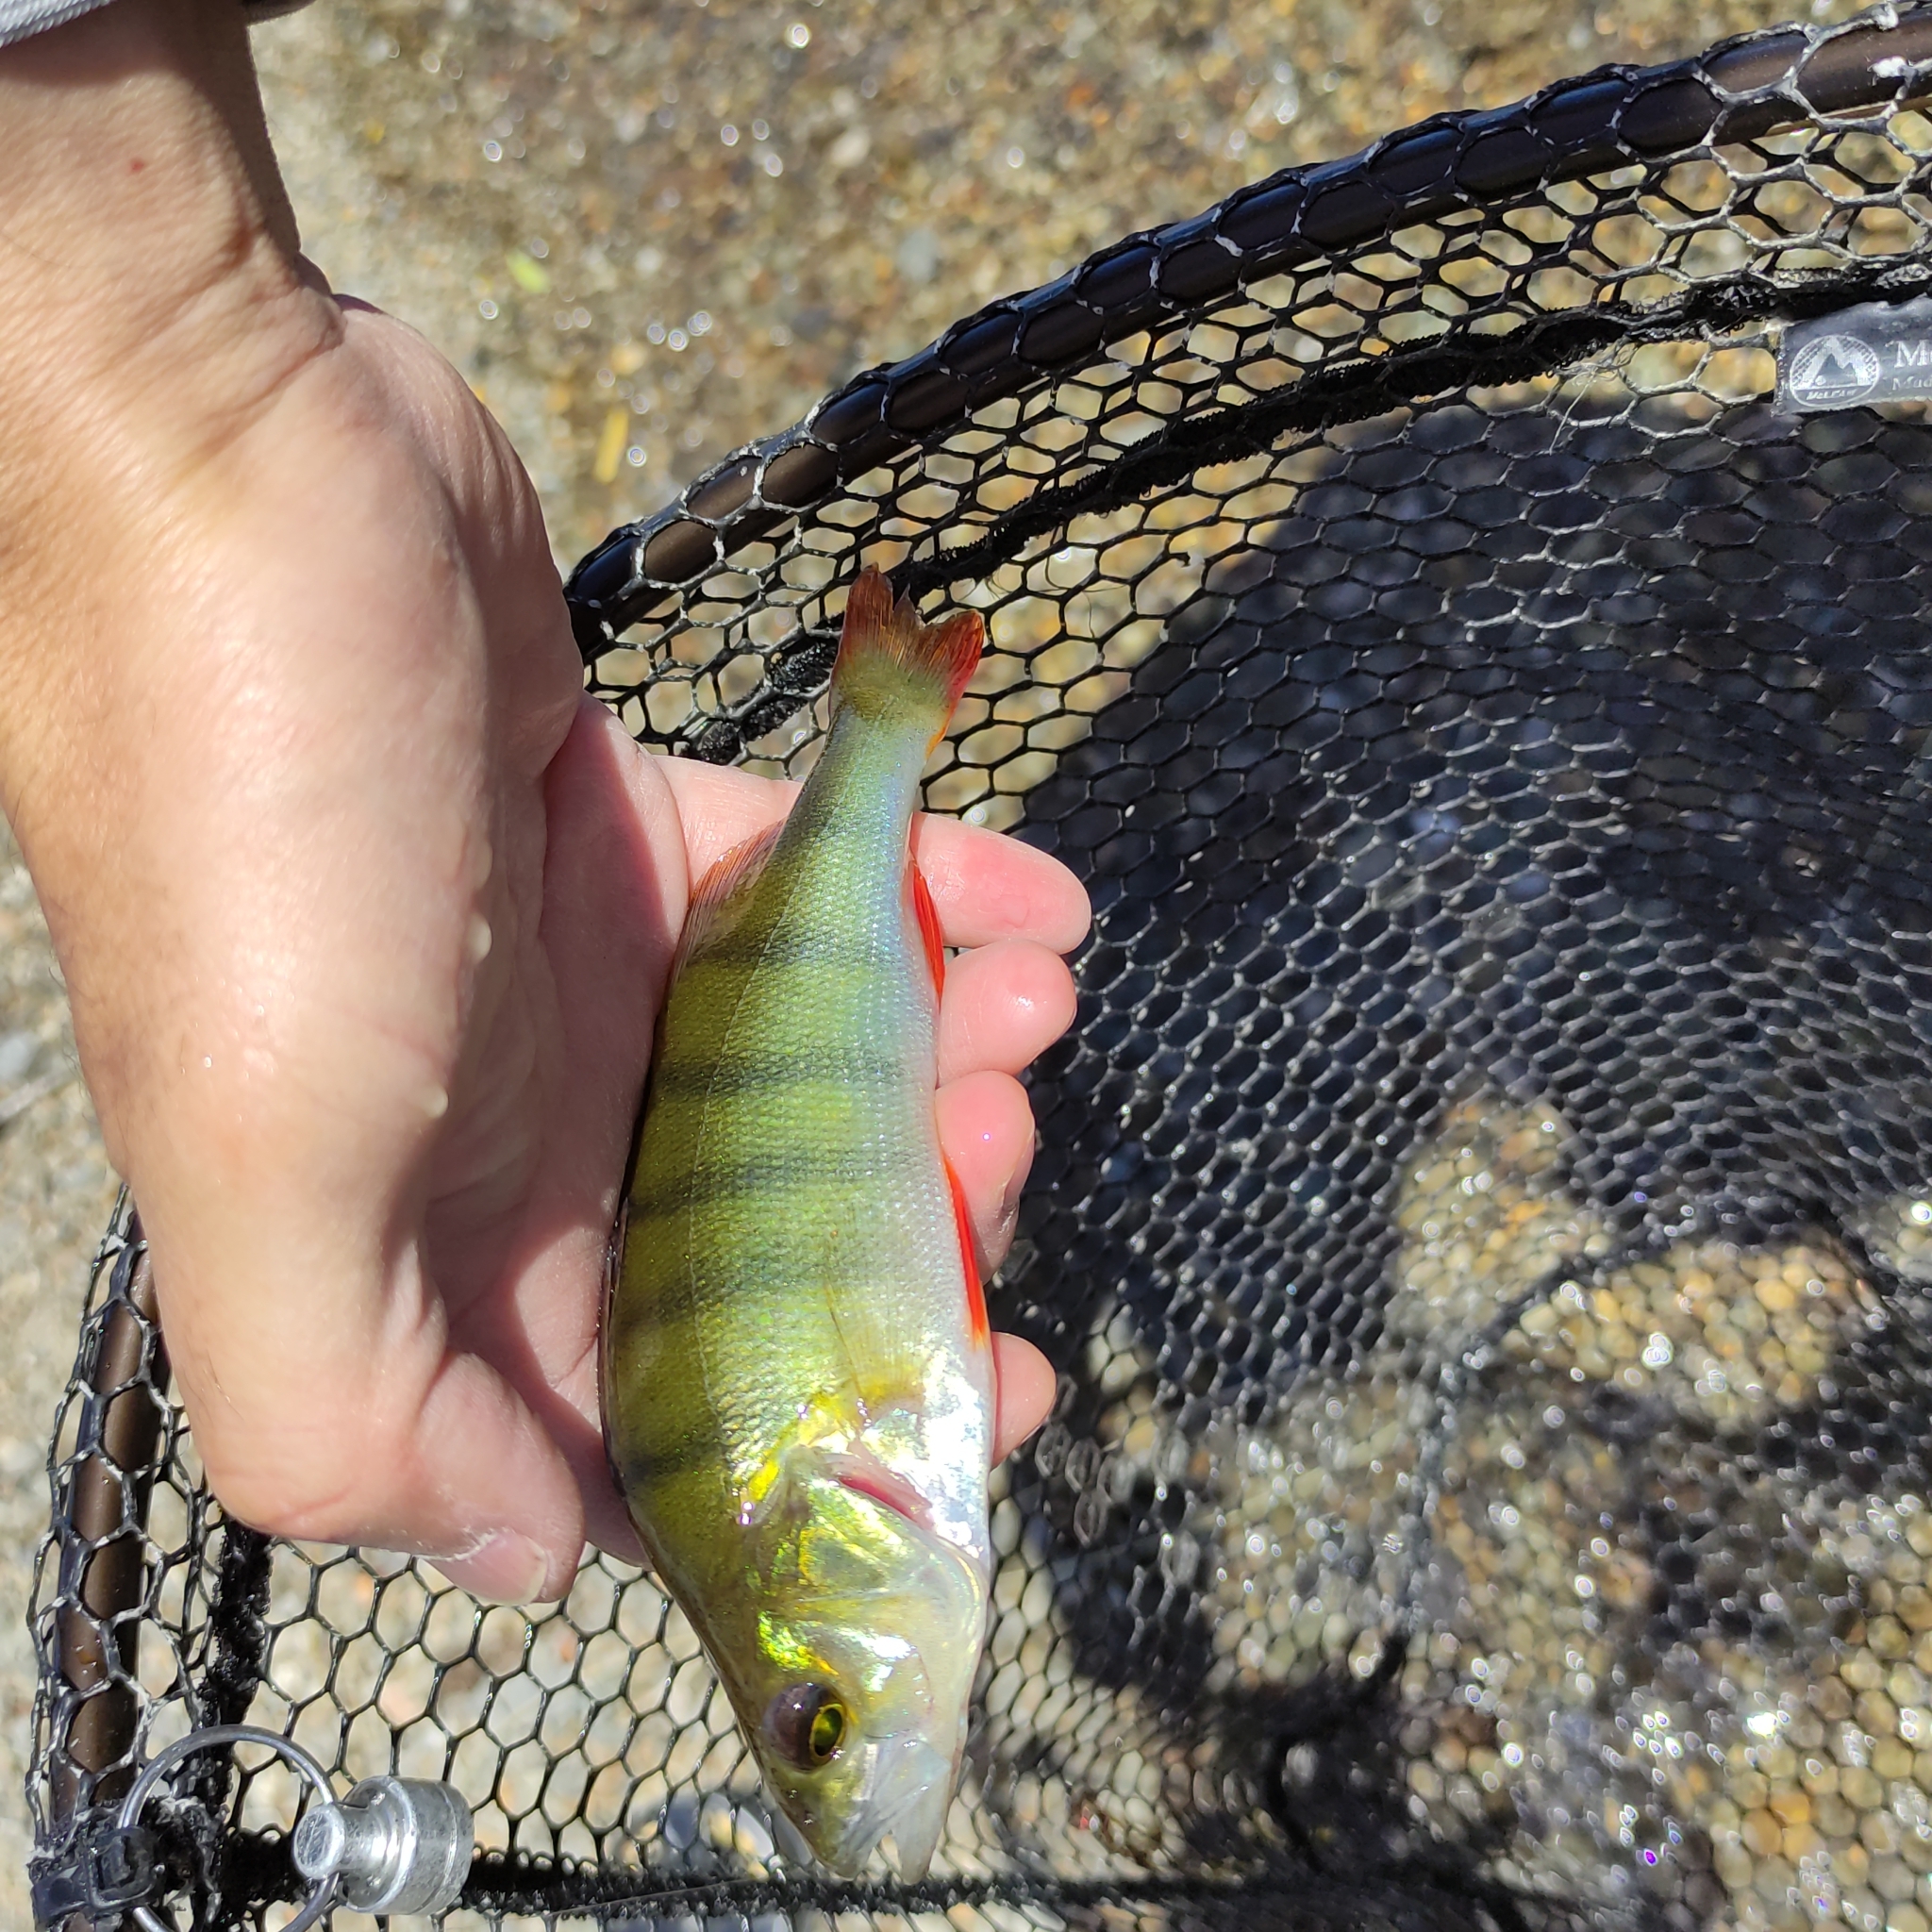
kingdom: Animalia
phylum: Chordata
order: Perciformes
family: Percidae
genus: Perca
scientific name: Perca fluviatilis
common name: Perch
